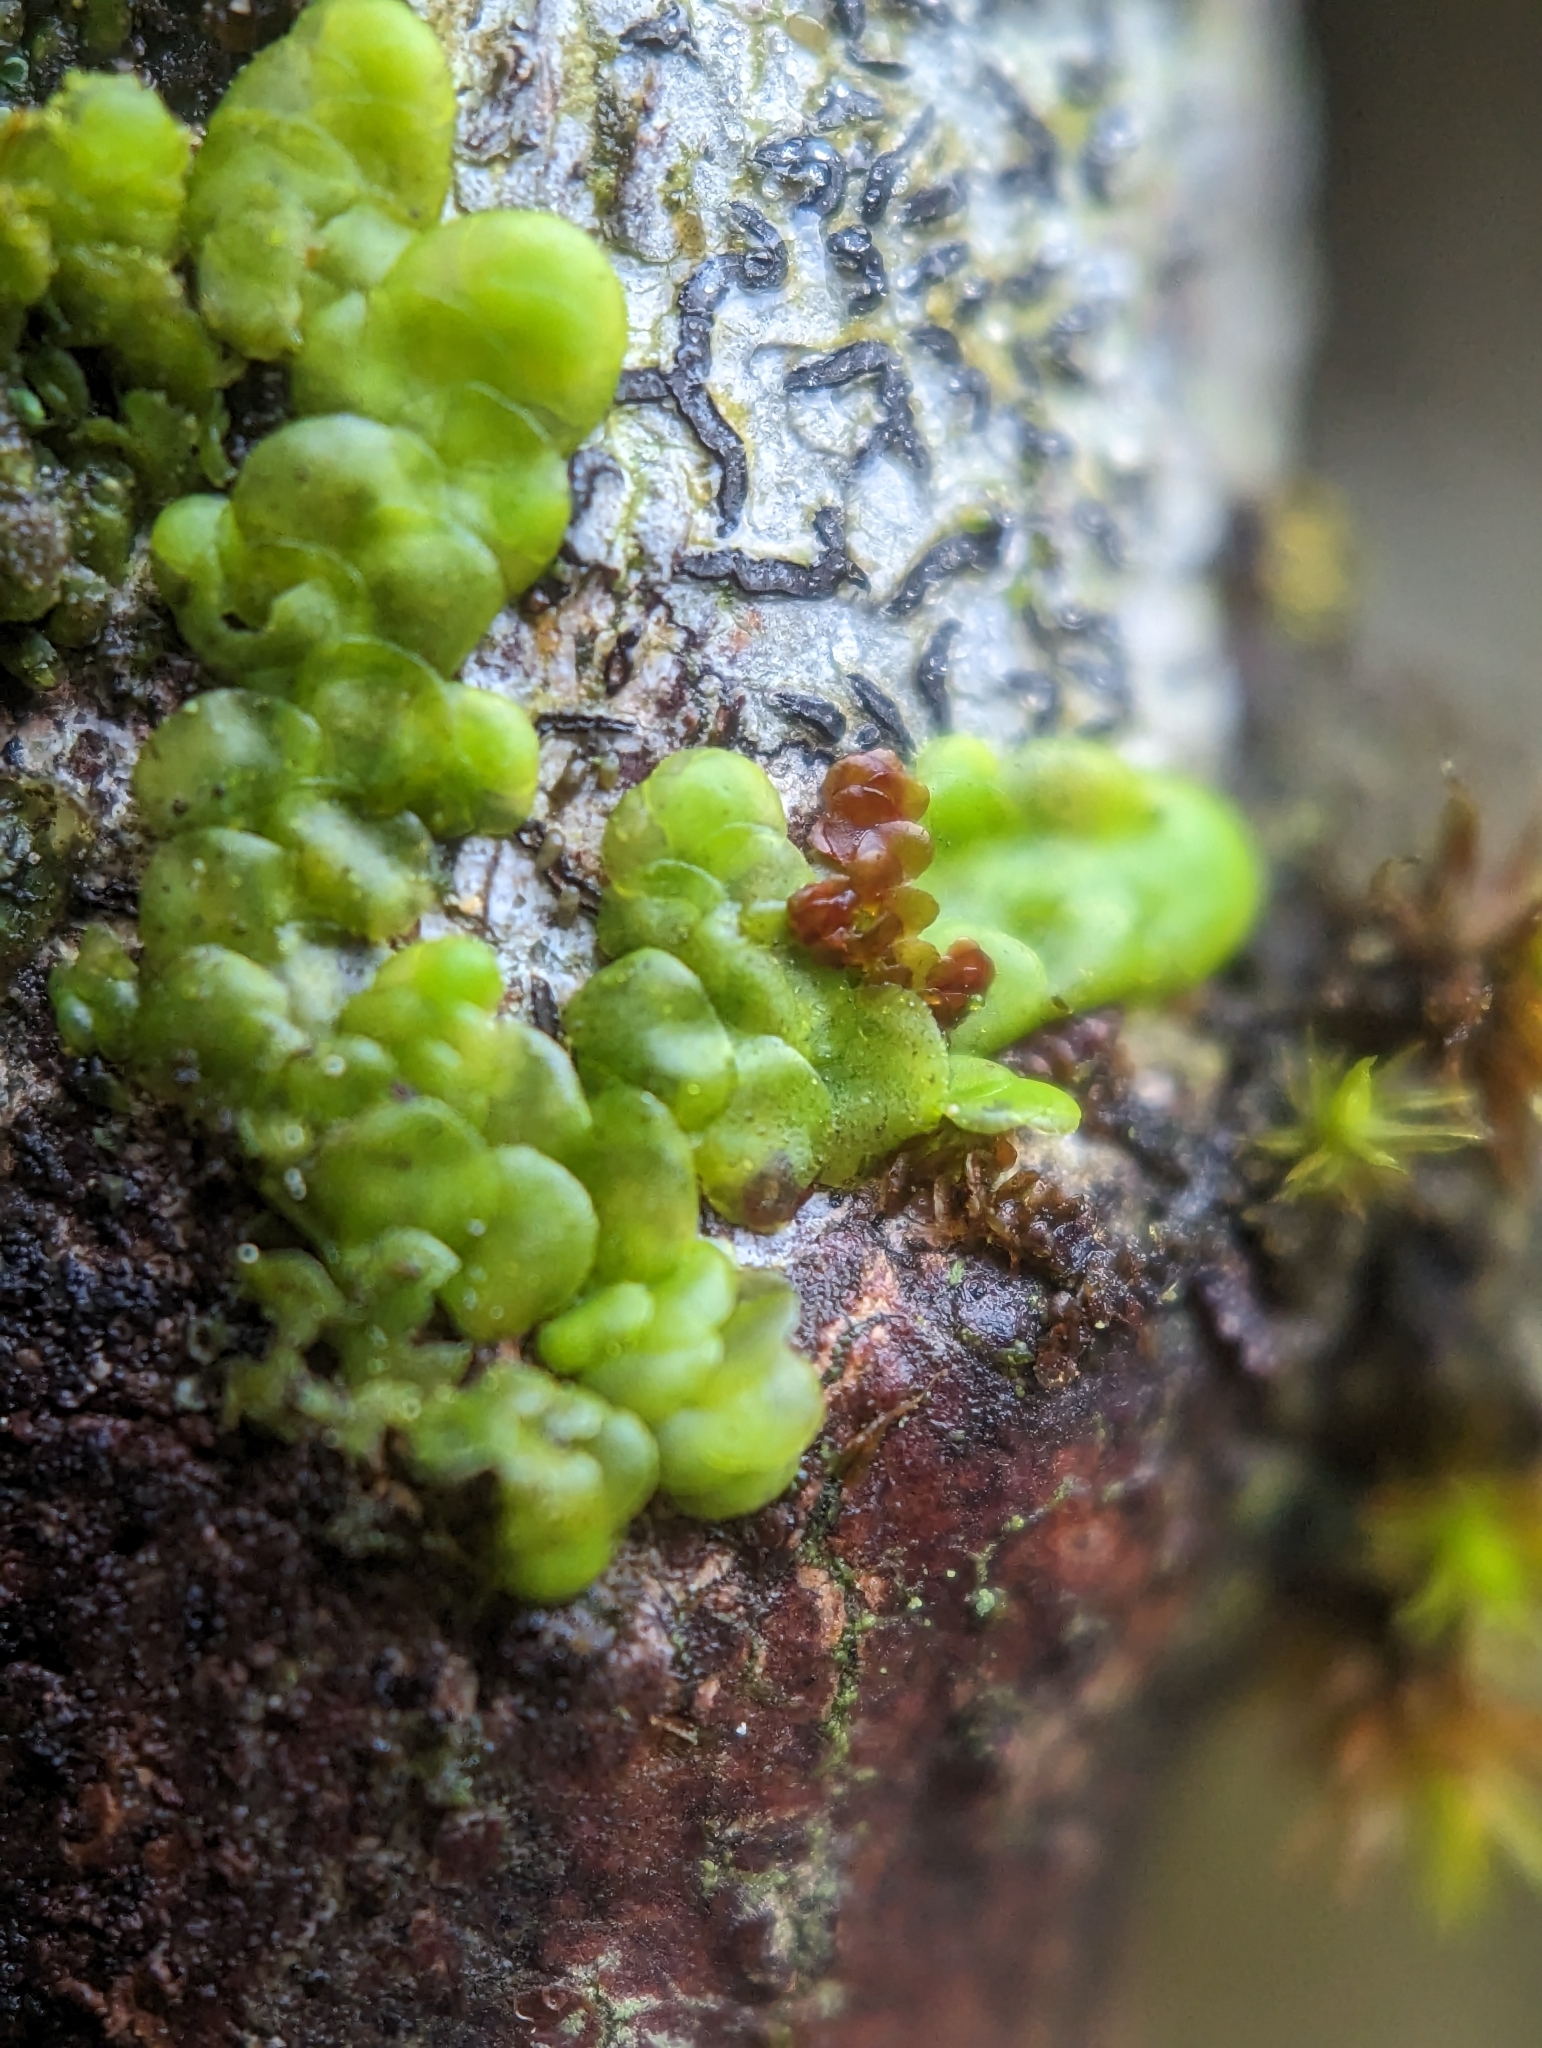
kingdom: Plantae
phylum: Marchantiophyta
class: Jungermanniopsida
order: Porellales
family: Radulaceae
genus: Radula
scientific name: Radula complanata
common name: Flat-leaved scalewort
